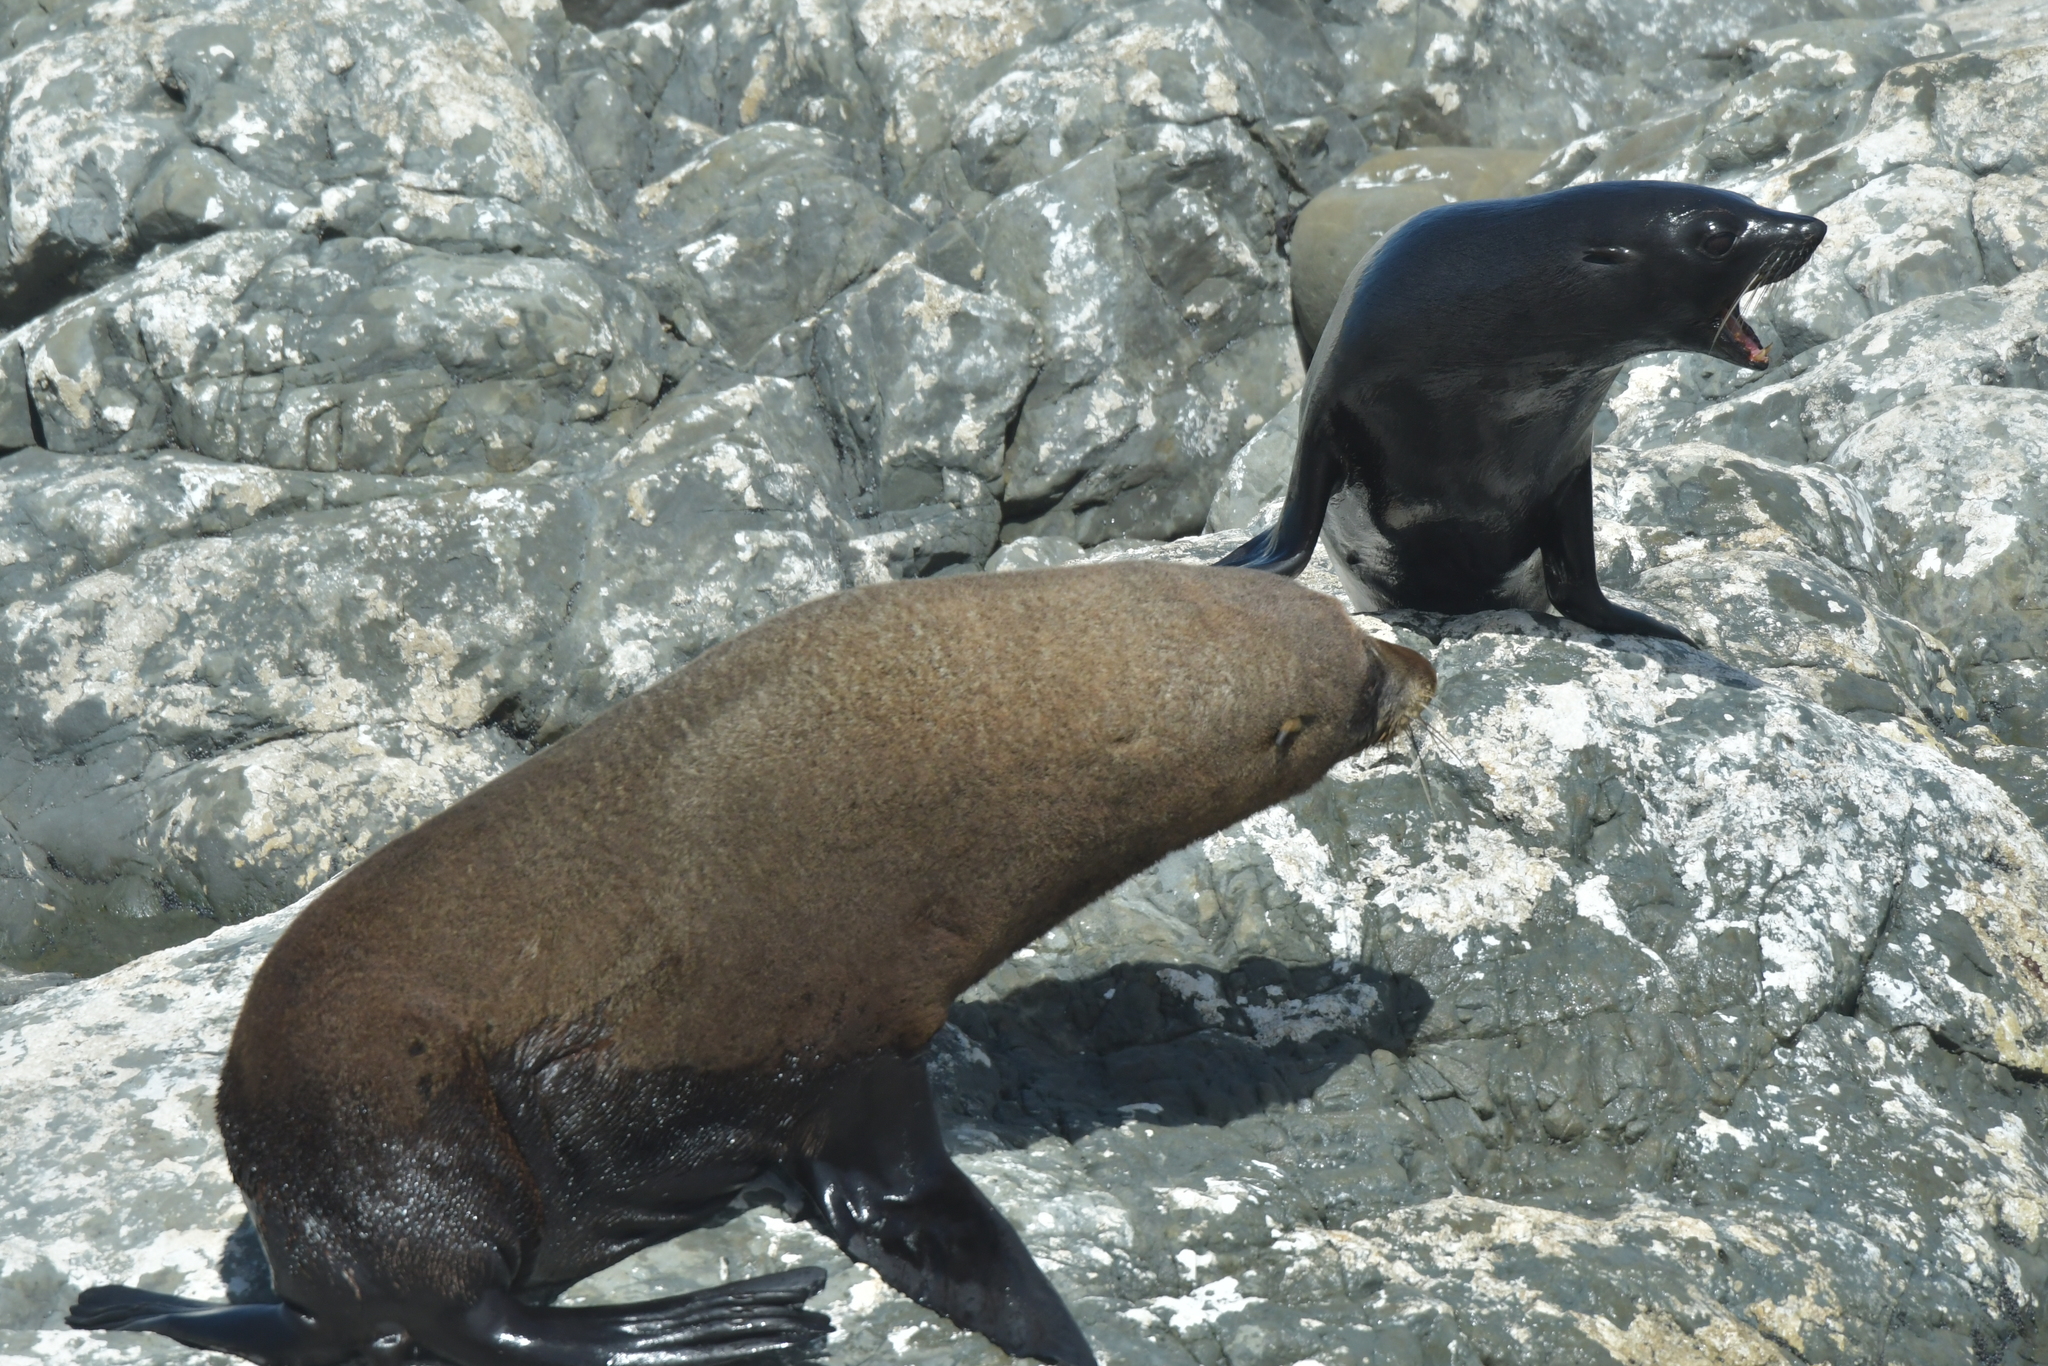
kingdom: Animalia
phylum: Chordata
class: Mammalia
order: Carnivora
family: Otariidae
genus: Arctocephalus
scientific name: Arctocephalus forsteri
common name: New zealand fur seal
